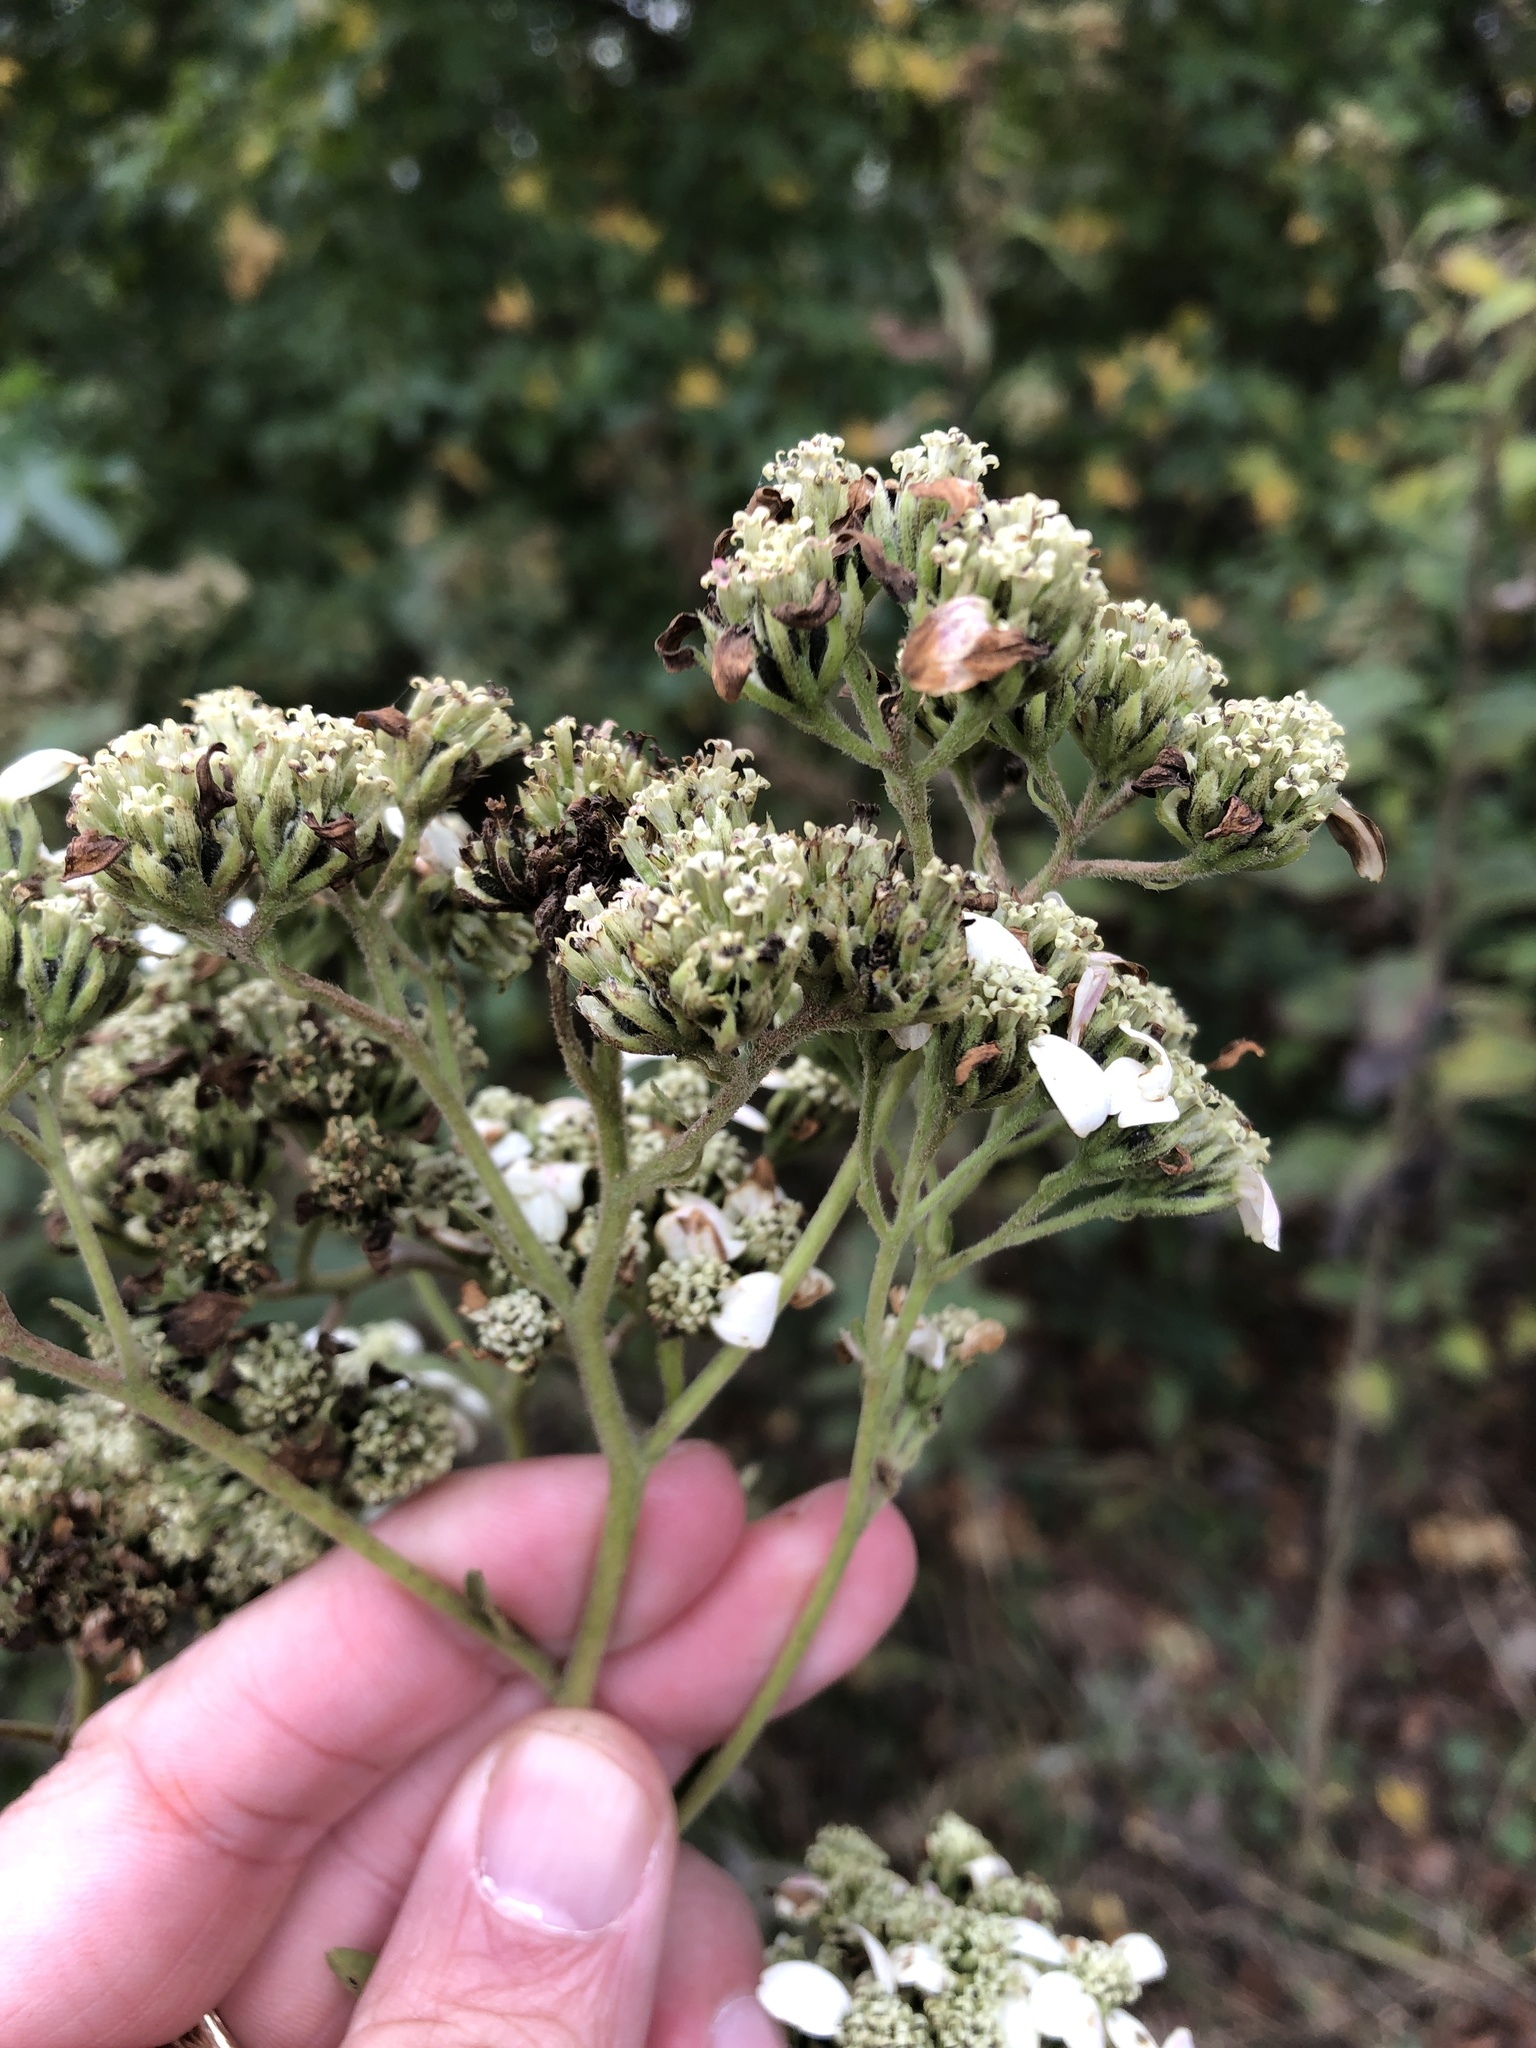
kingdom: Plantae
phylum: Tracheophyta
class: Magnoliopsida
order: Asterales
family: Asteraceae
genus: Verbesina
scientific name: Verbesina virginica
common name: Frostweed
